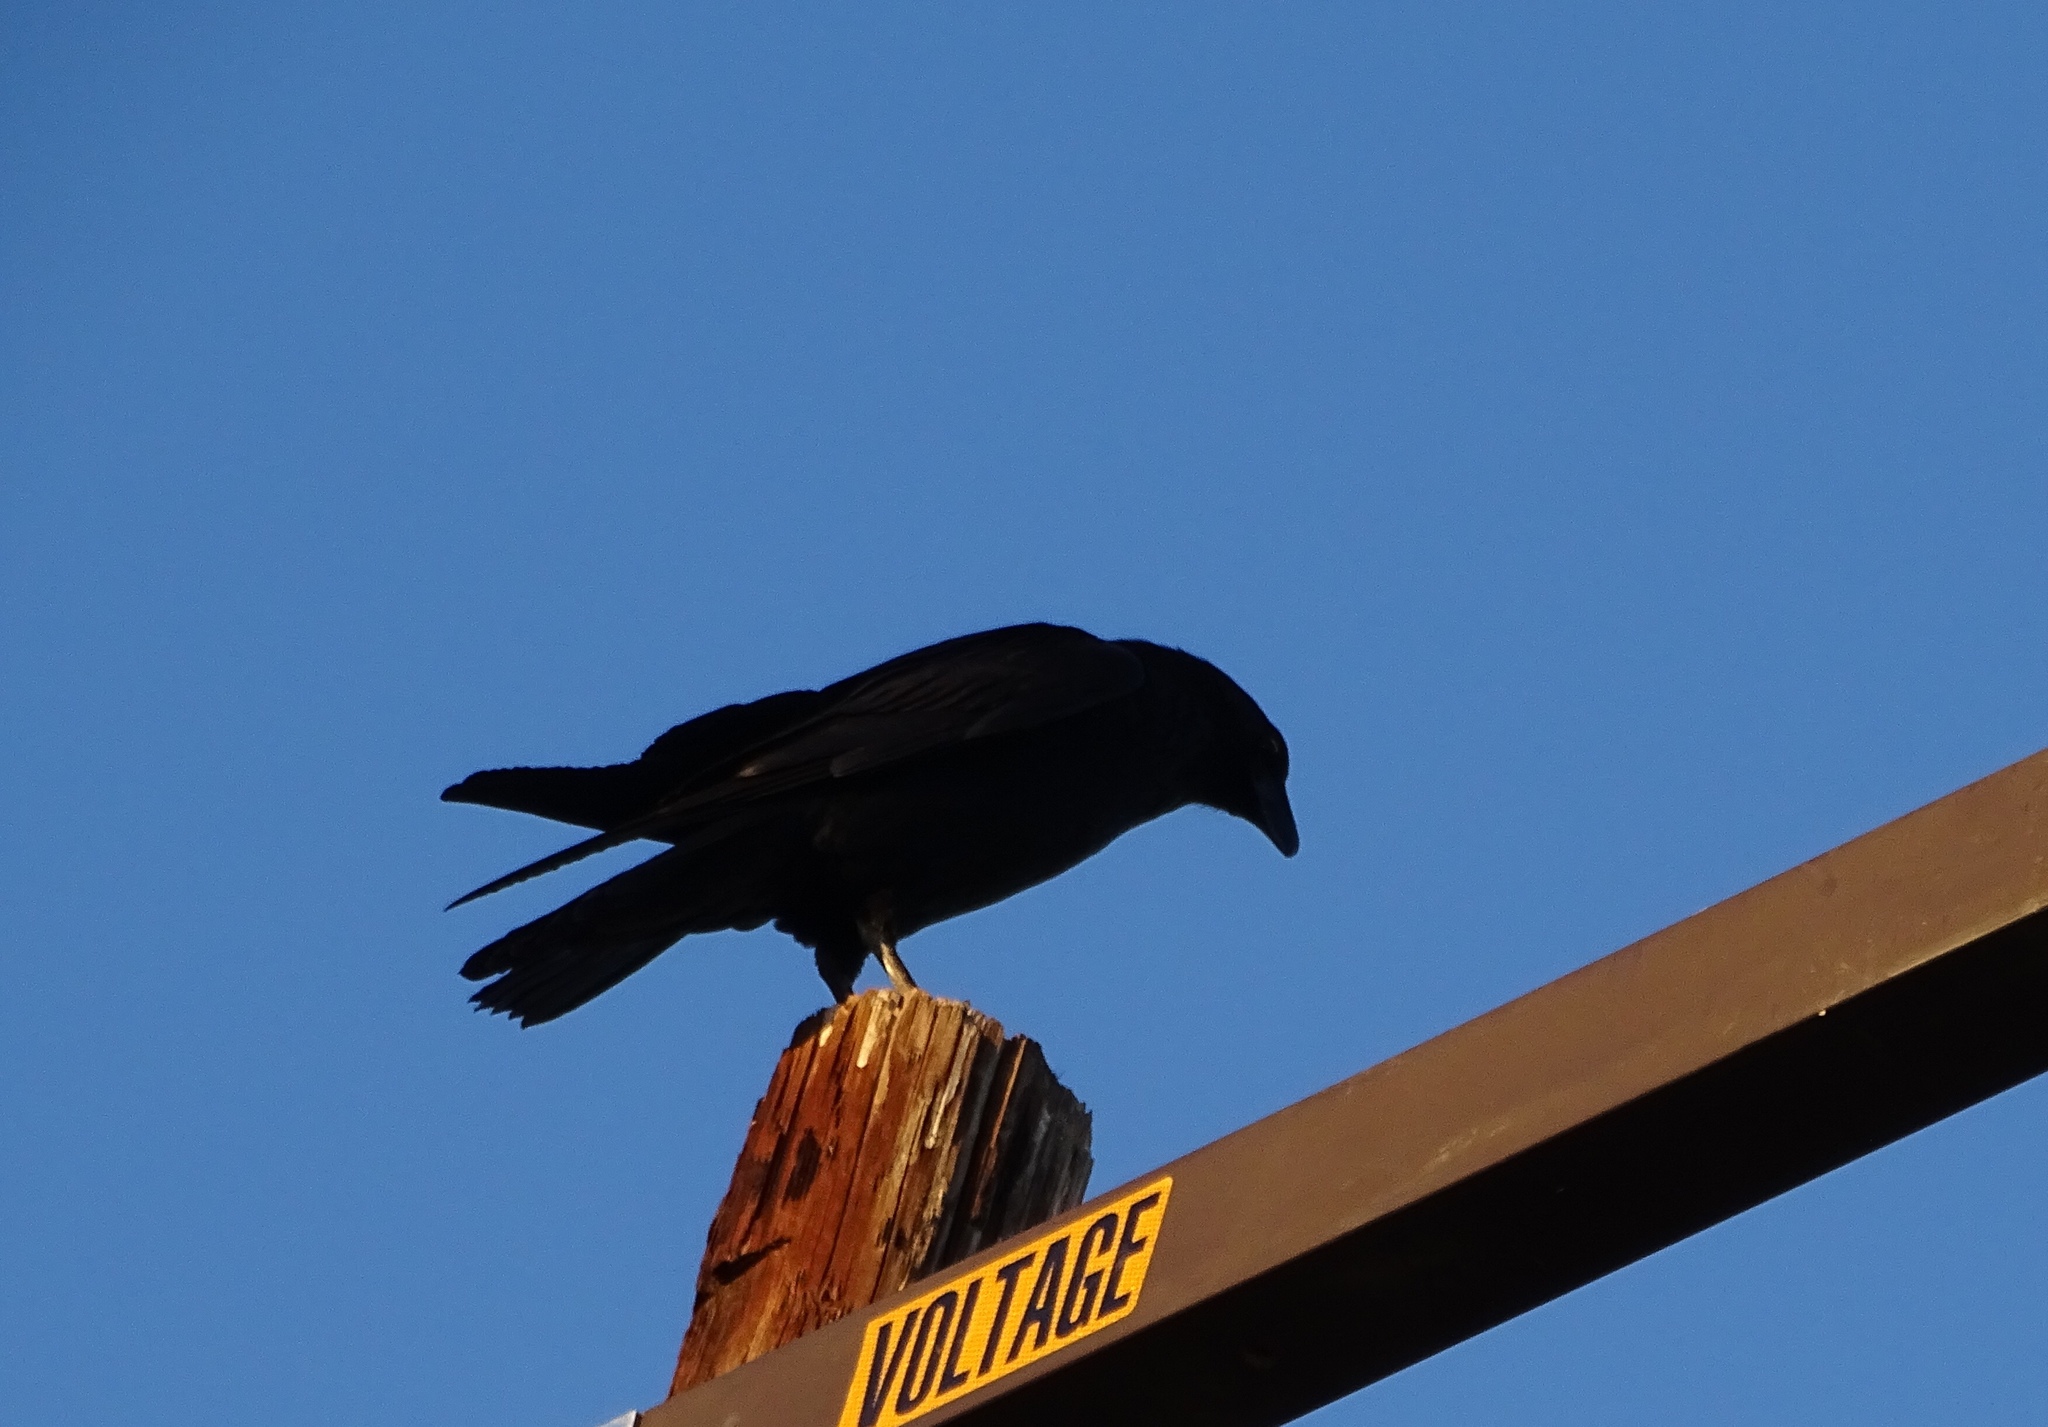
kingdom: Animalia
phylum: Chordata
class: Aves
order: Passeriformes
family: Corvidae
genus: Corvus
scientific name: Corvus corax
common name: Common raven
